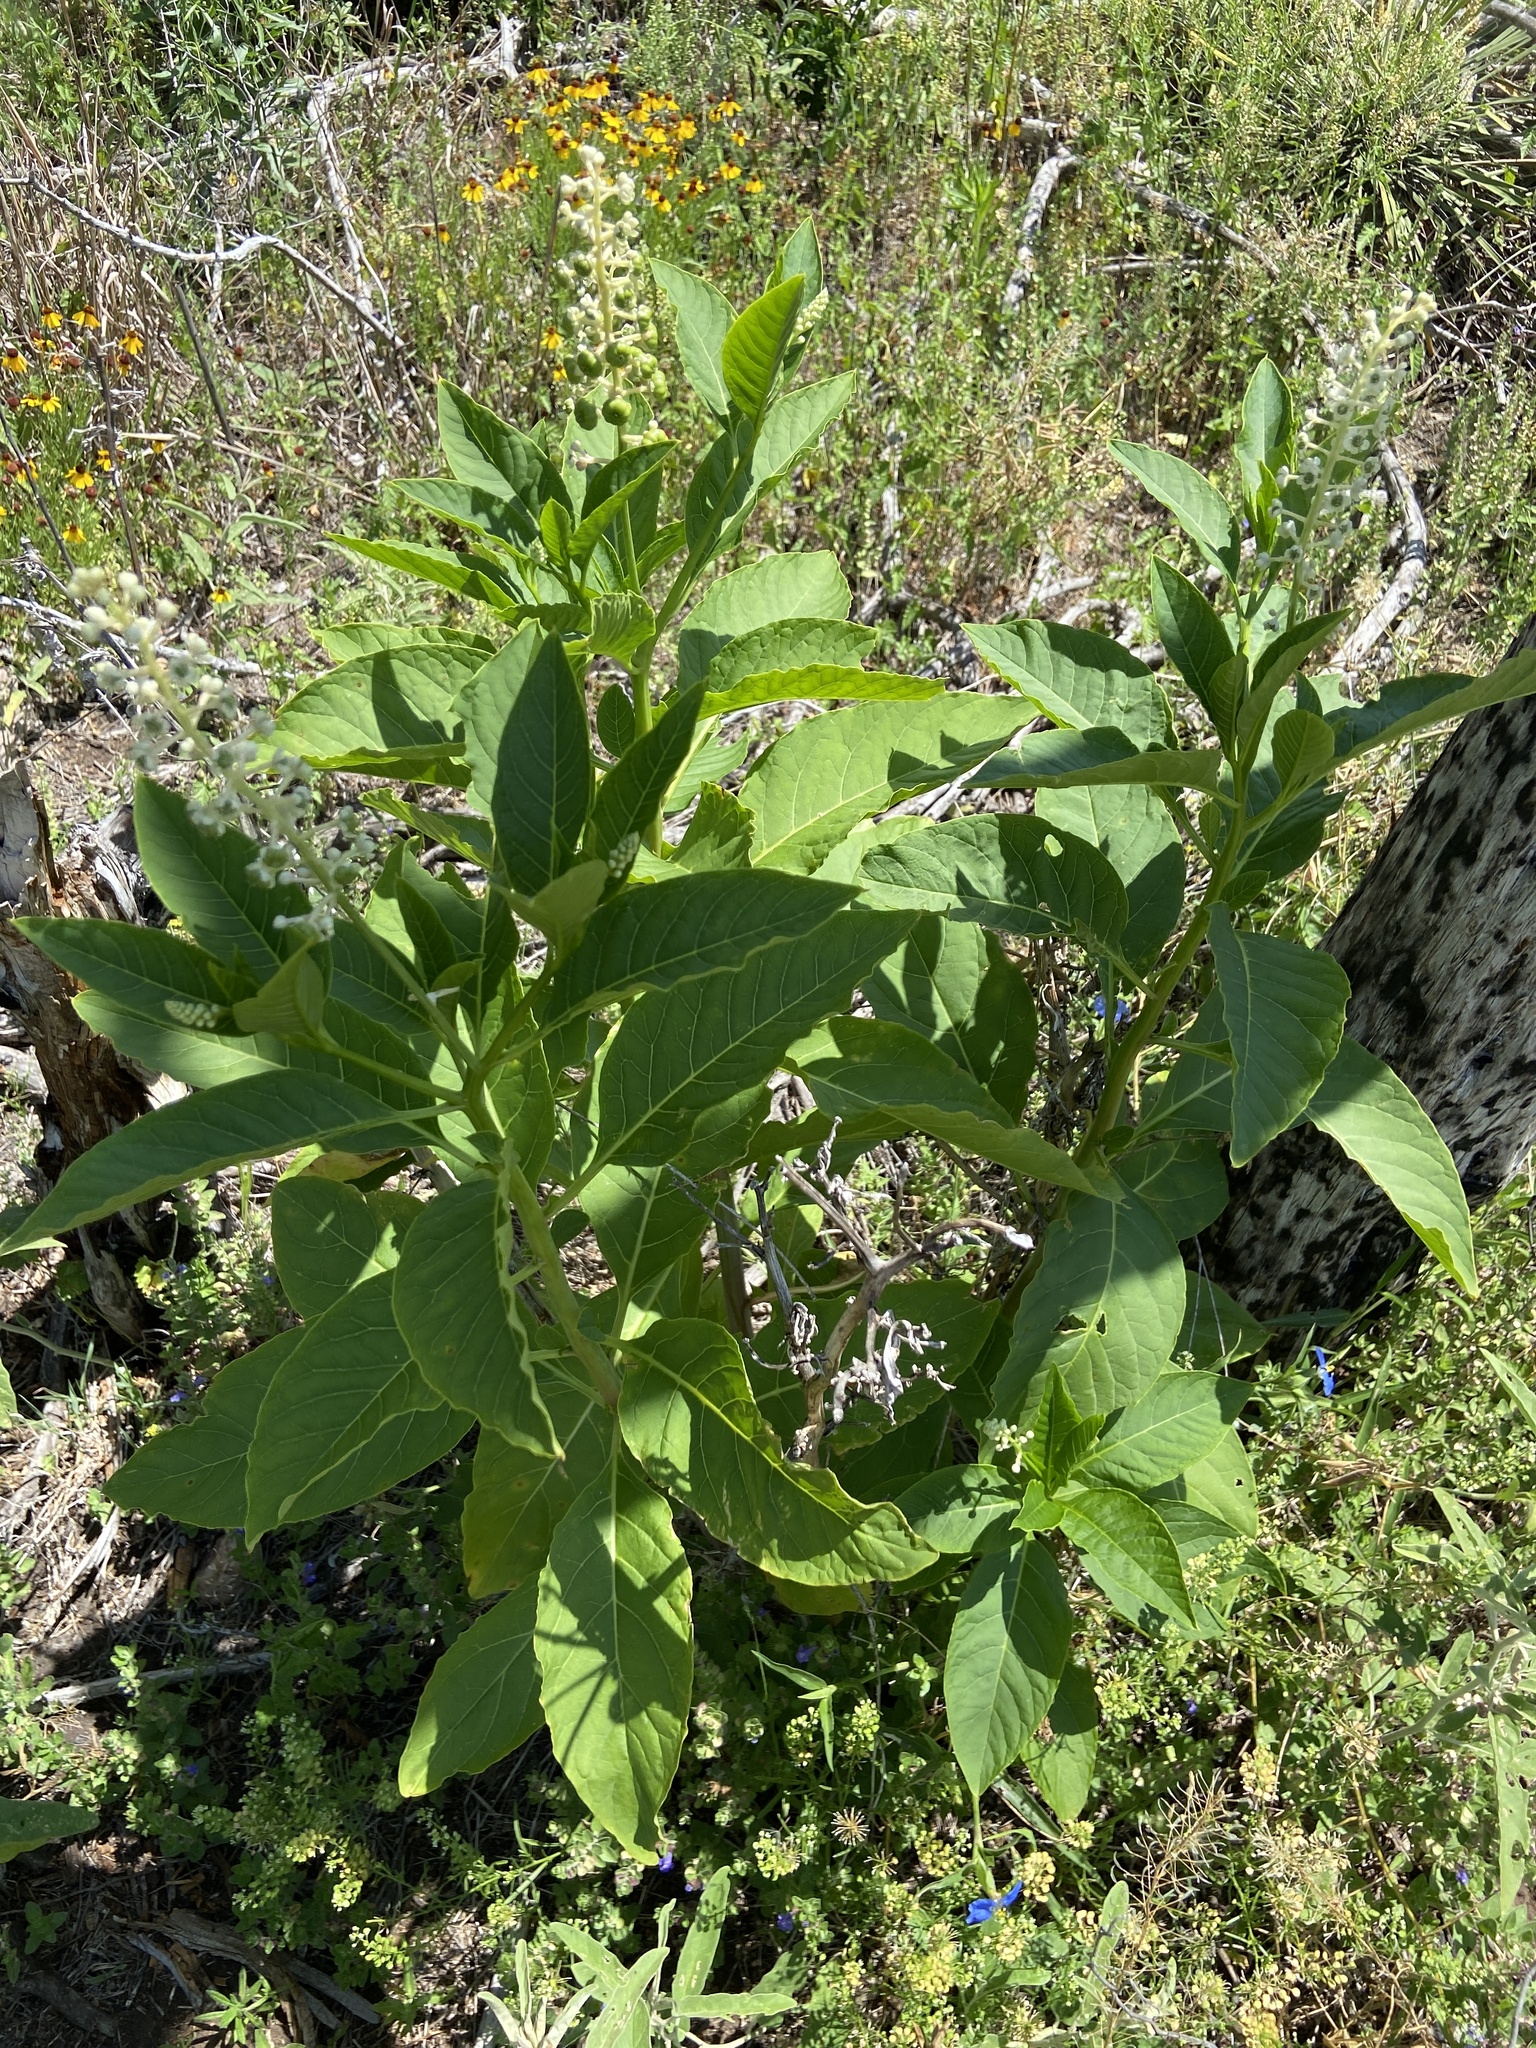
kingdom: Plantae
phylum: Tracheophyta
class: Magnoliopsida
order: Caryophyllales
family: Phytolaccaceae
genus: Phytolacca
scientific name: Phytolacca americana
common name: American pokeweed
